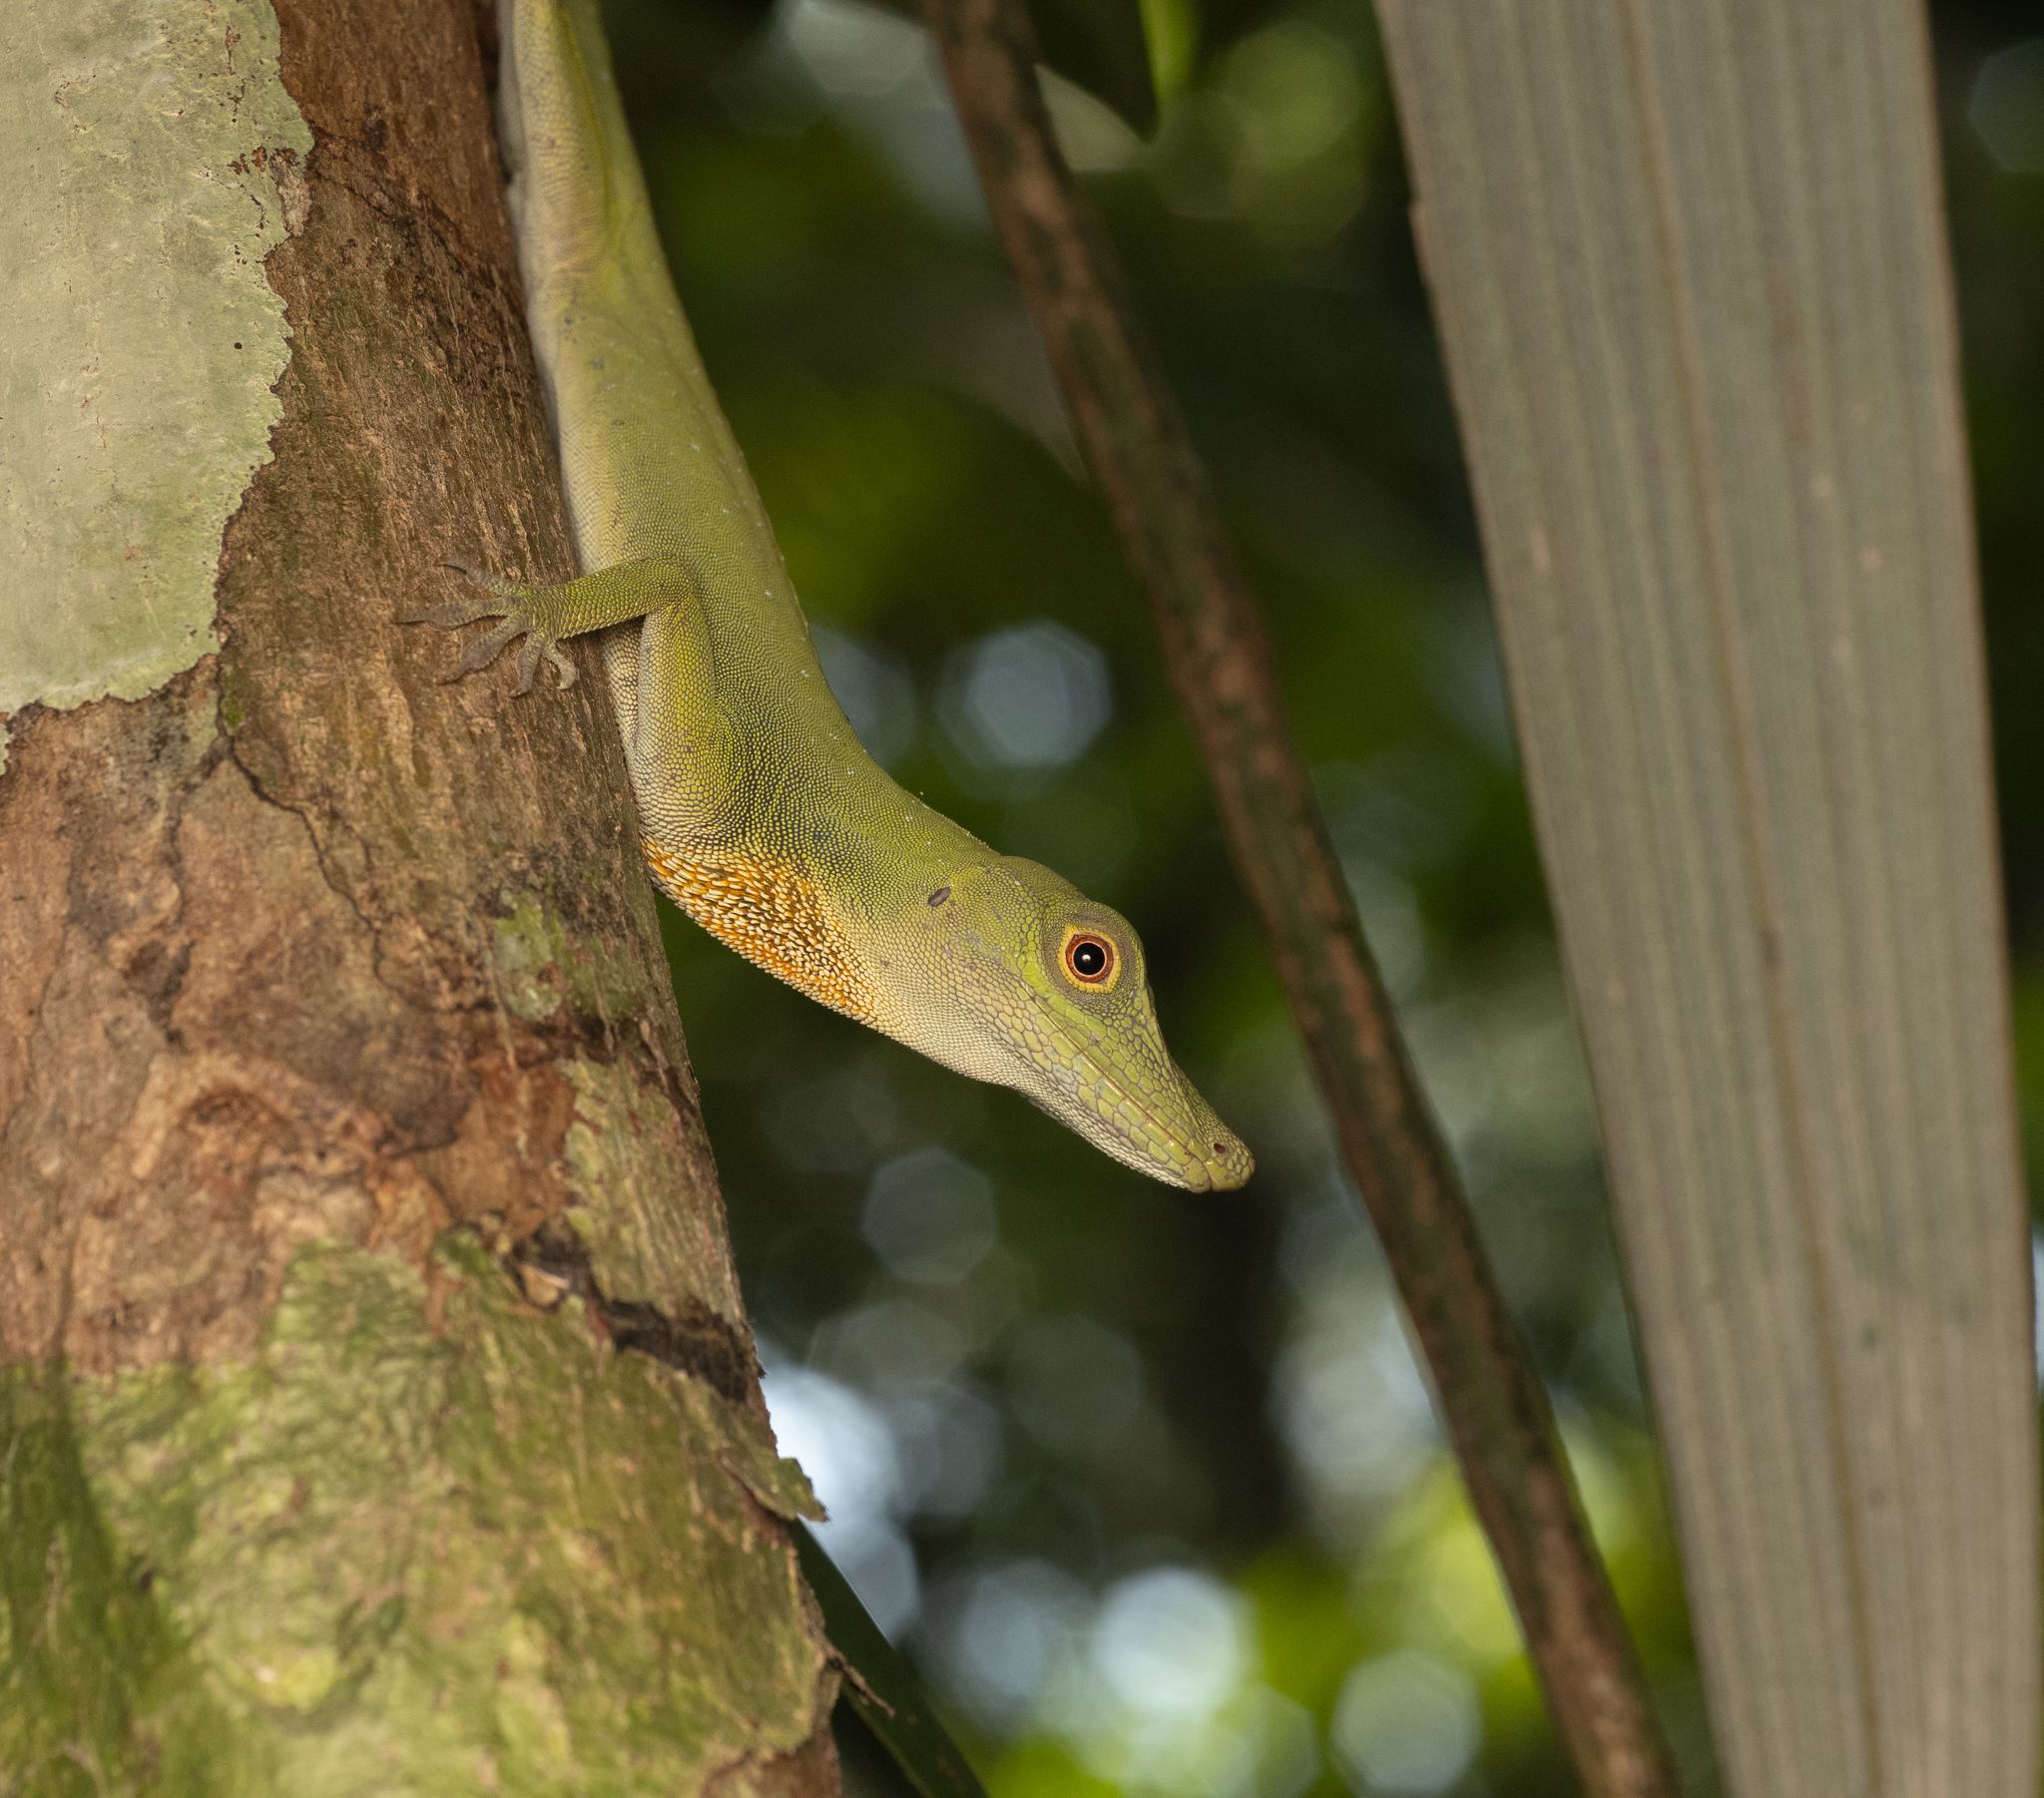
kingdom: Animalia
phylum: Chordata
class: Squamata
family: Dactyloidae
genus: Anolis
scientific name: Anolis punctatus
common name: Amazon green anole
